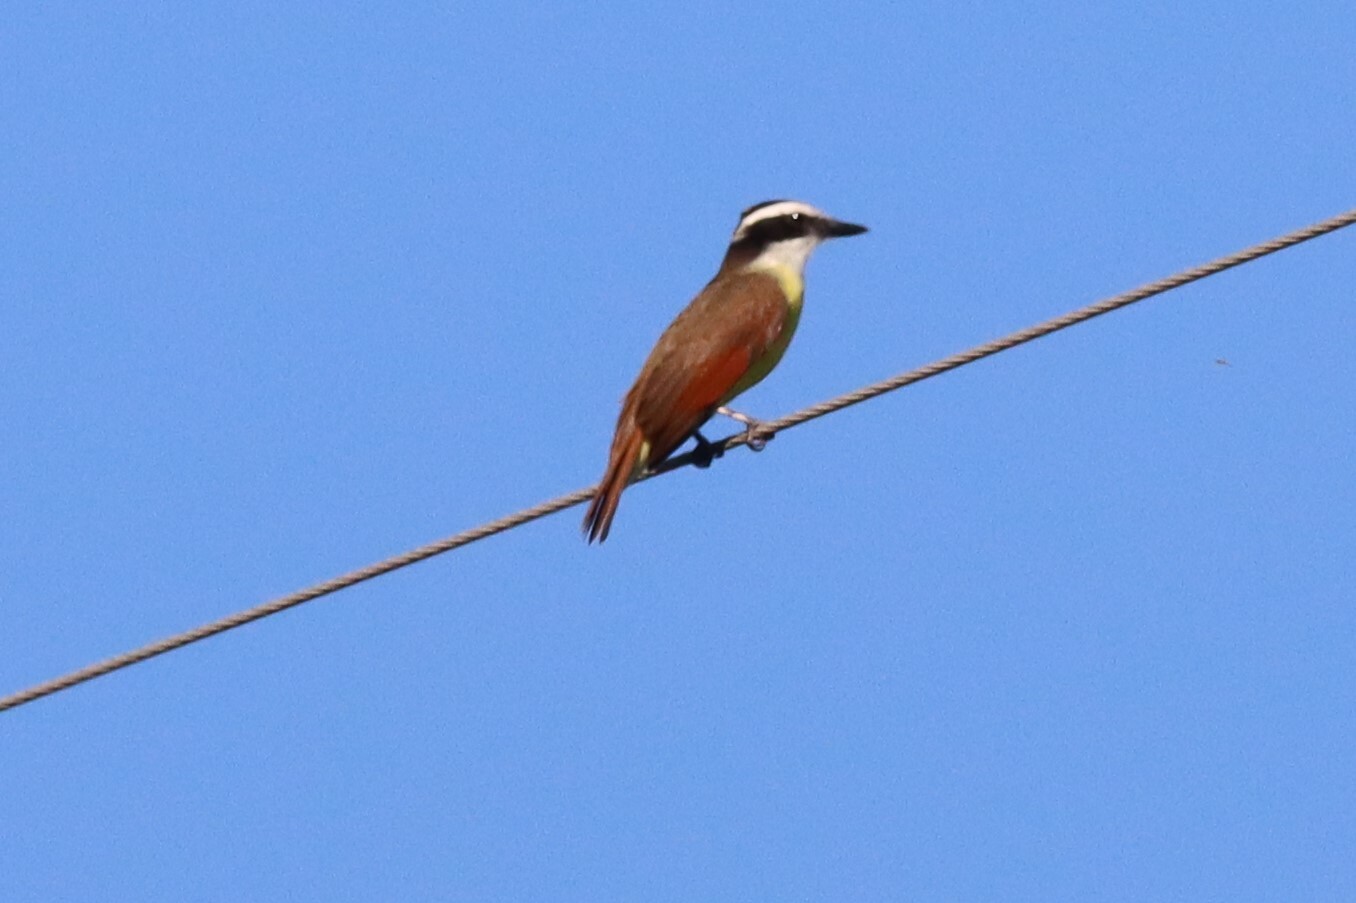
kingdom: Animalia
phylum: Chordata
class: Aves
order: Passeriformes
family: Tyrannidae
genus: Pitangus
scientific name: Pitangus sulphuratus
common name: Great kiskadee
